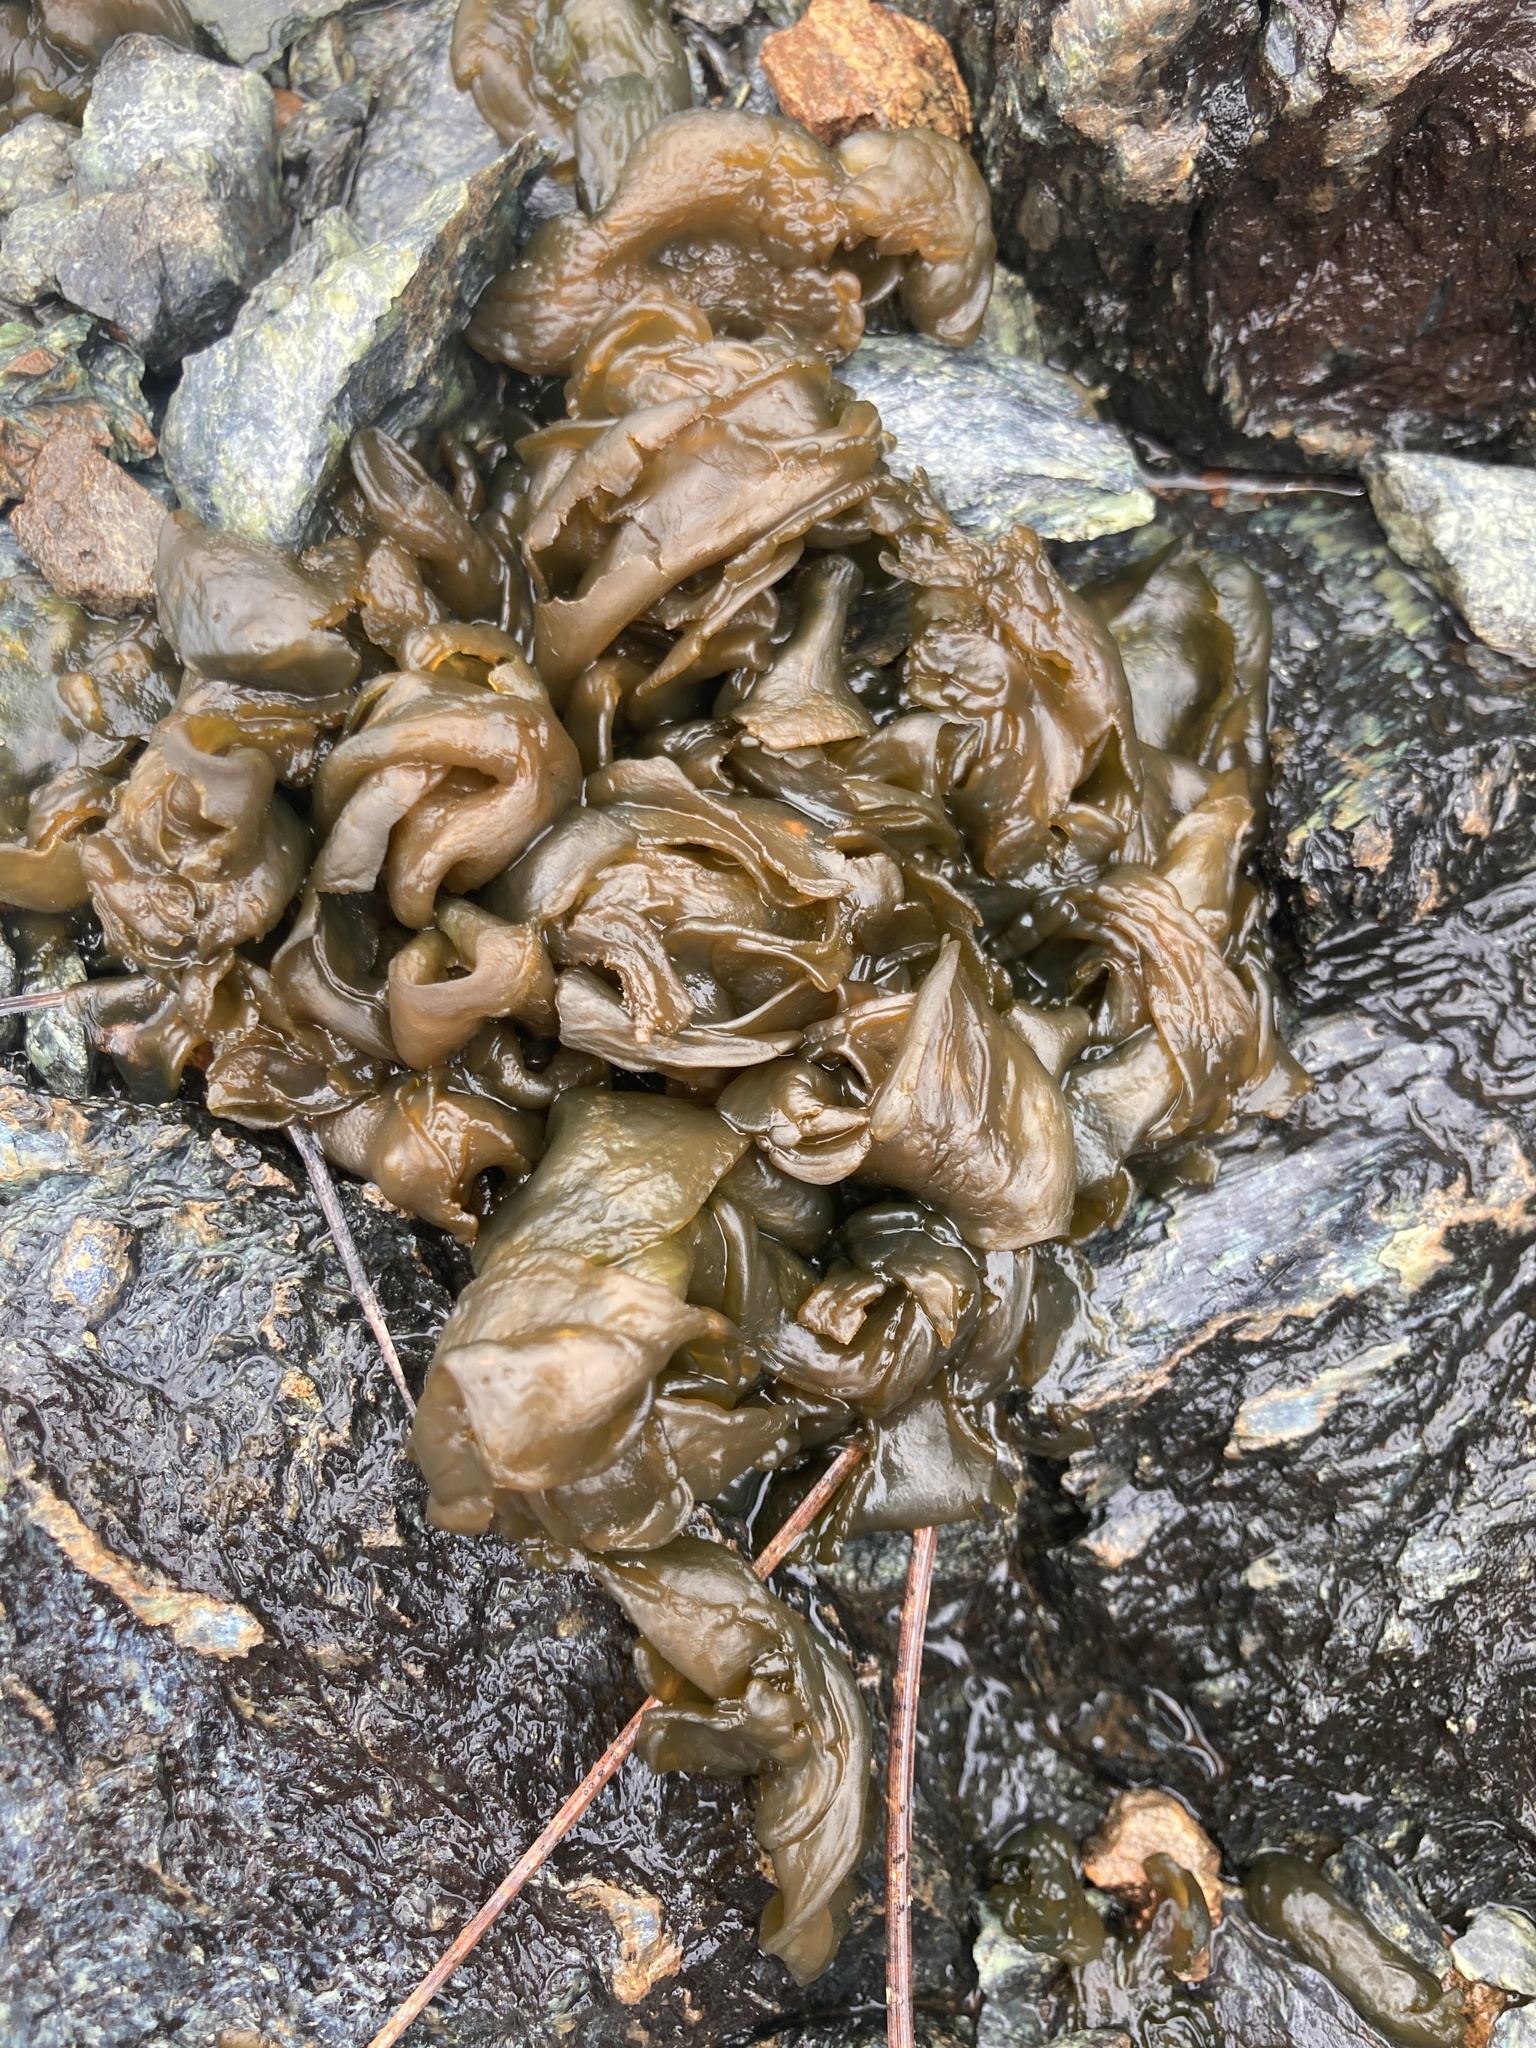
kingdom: Bacteria
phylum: Cyanobacteria
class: Cyanobacteriia
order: Cyanobacteriales
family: Nostocaceae
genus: Nostoc
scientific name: Nostoc commune
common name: Star jelly
